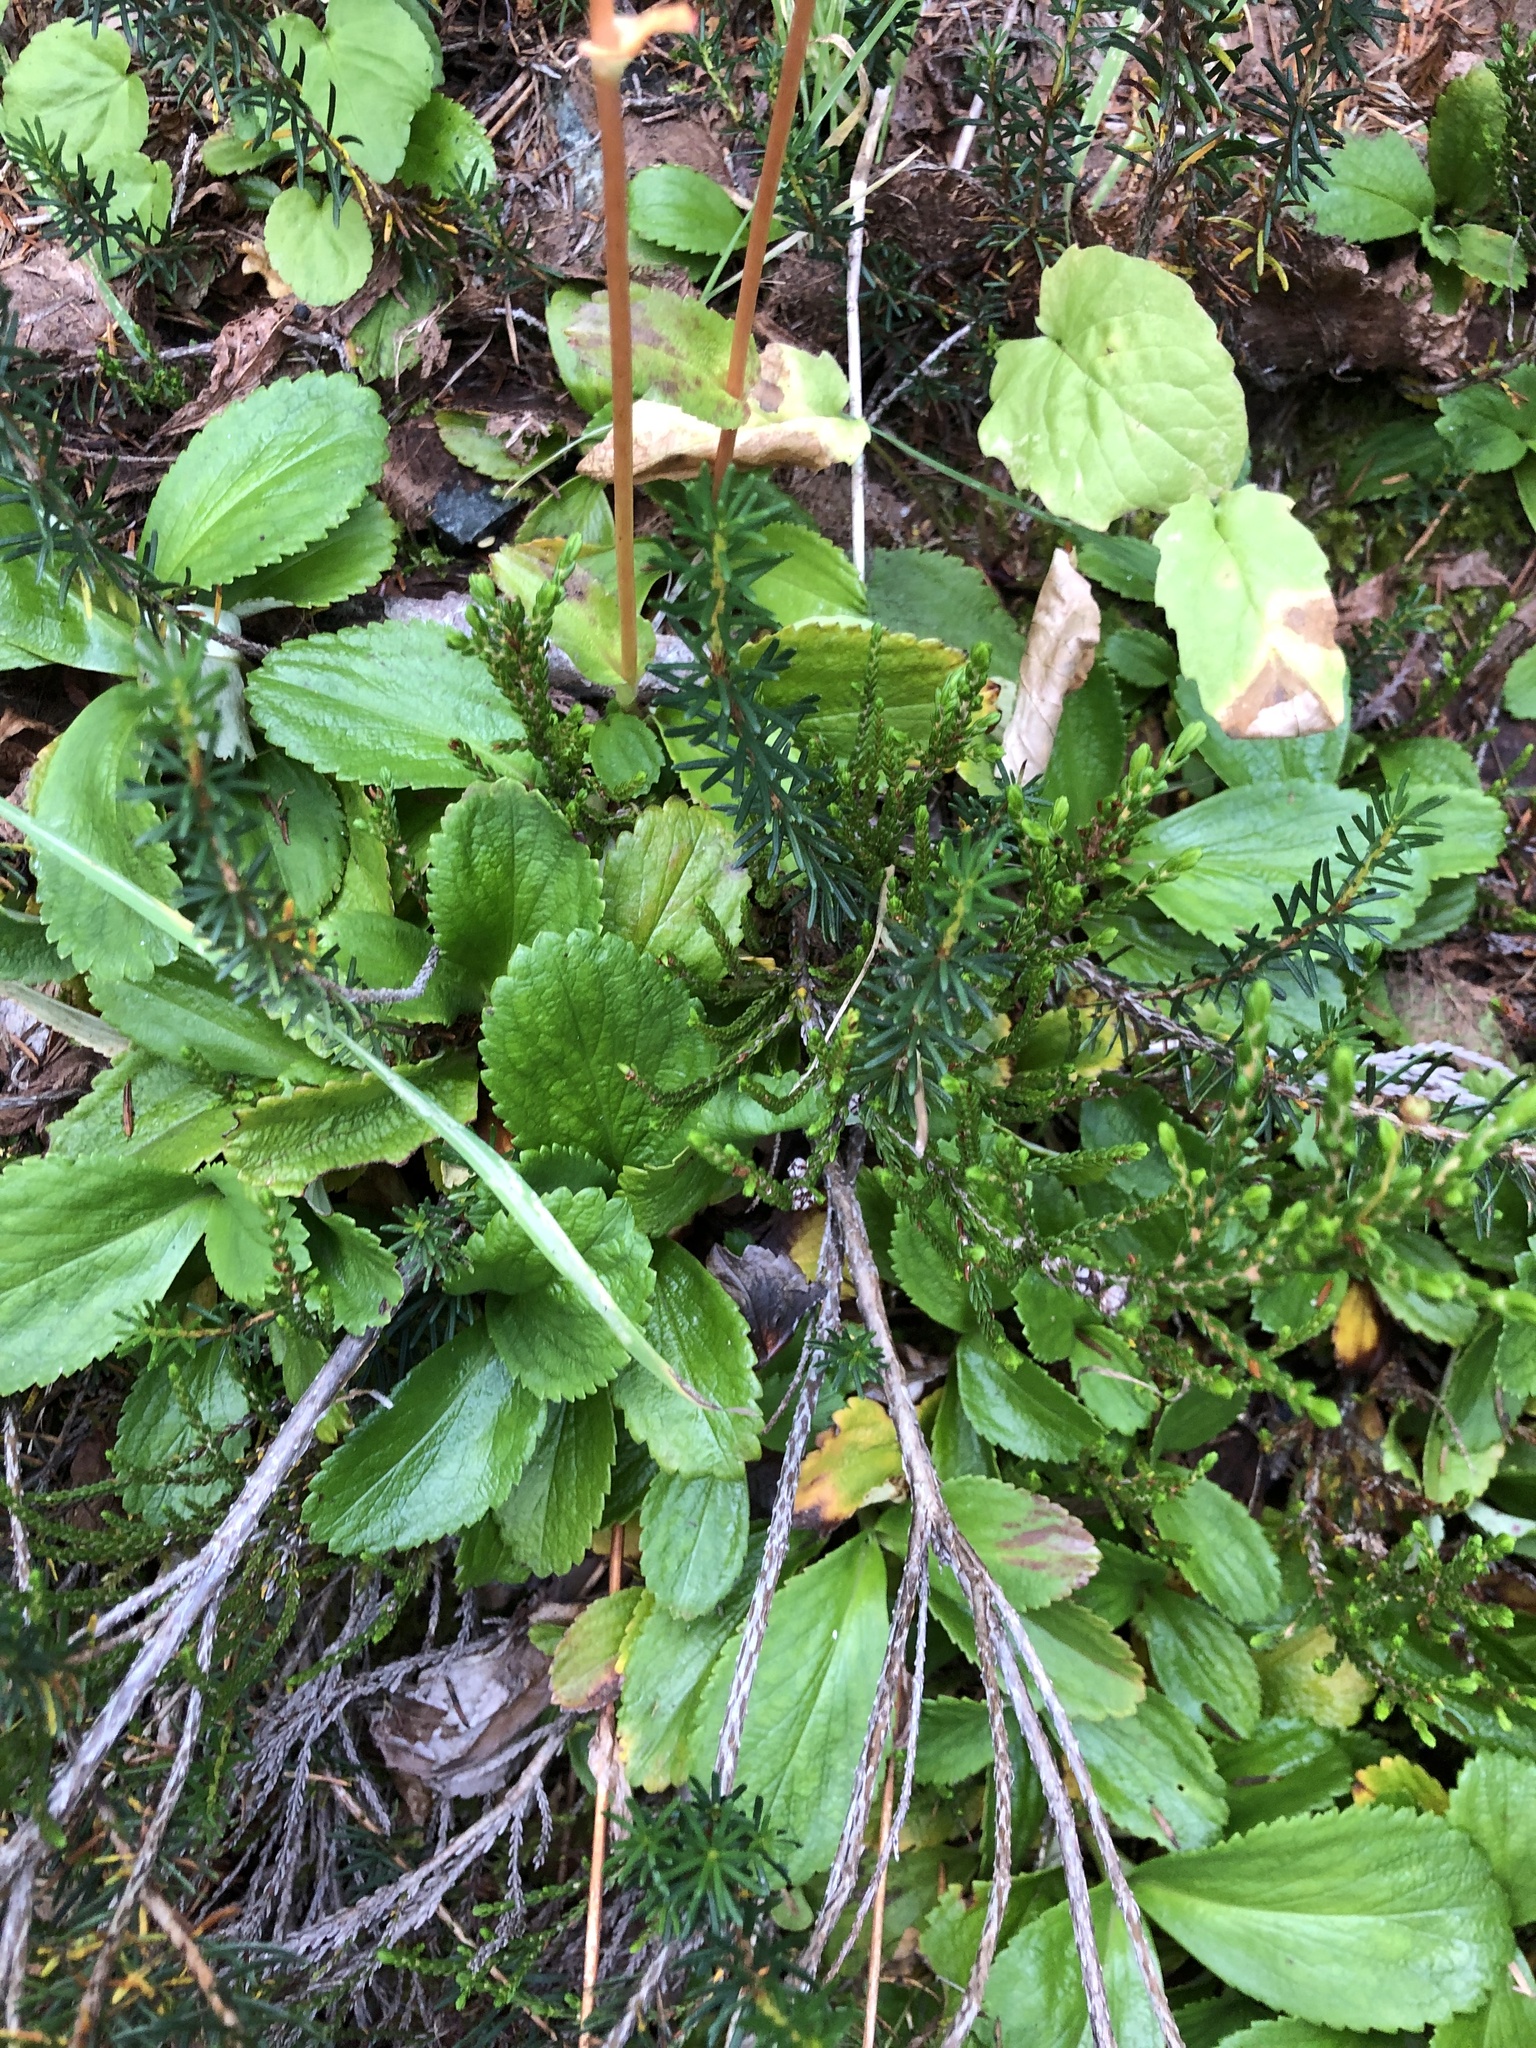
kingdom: Plantae
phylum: Tracheophyta
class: Magnoliopsida
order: Saxifragales
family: Saxifragaceae
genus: Leptarrhena
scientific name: Leptarrhena pyrolifolia
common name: Leatherleaf-saxifrage
